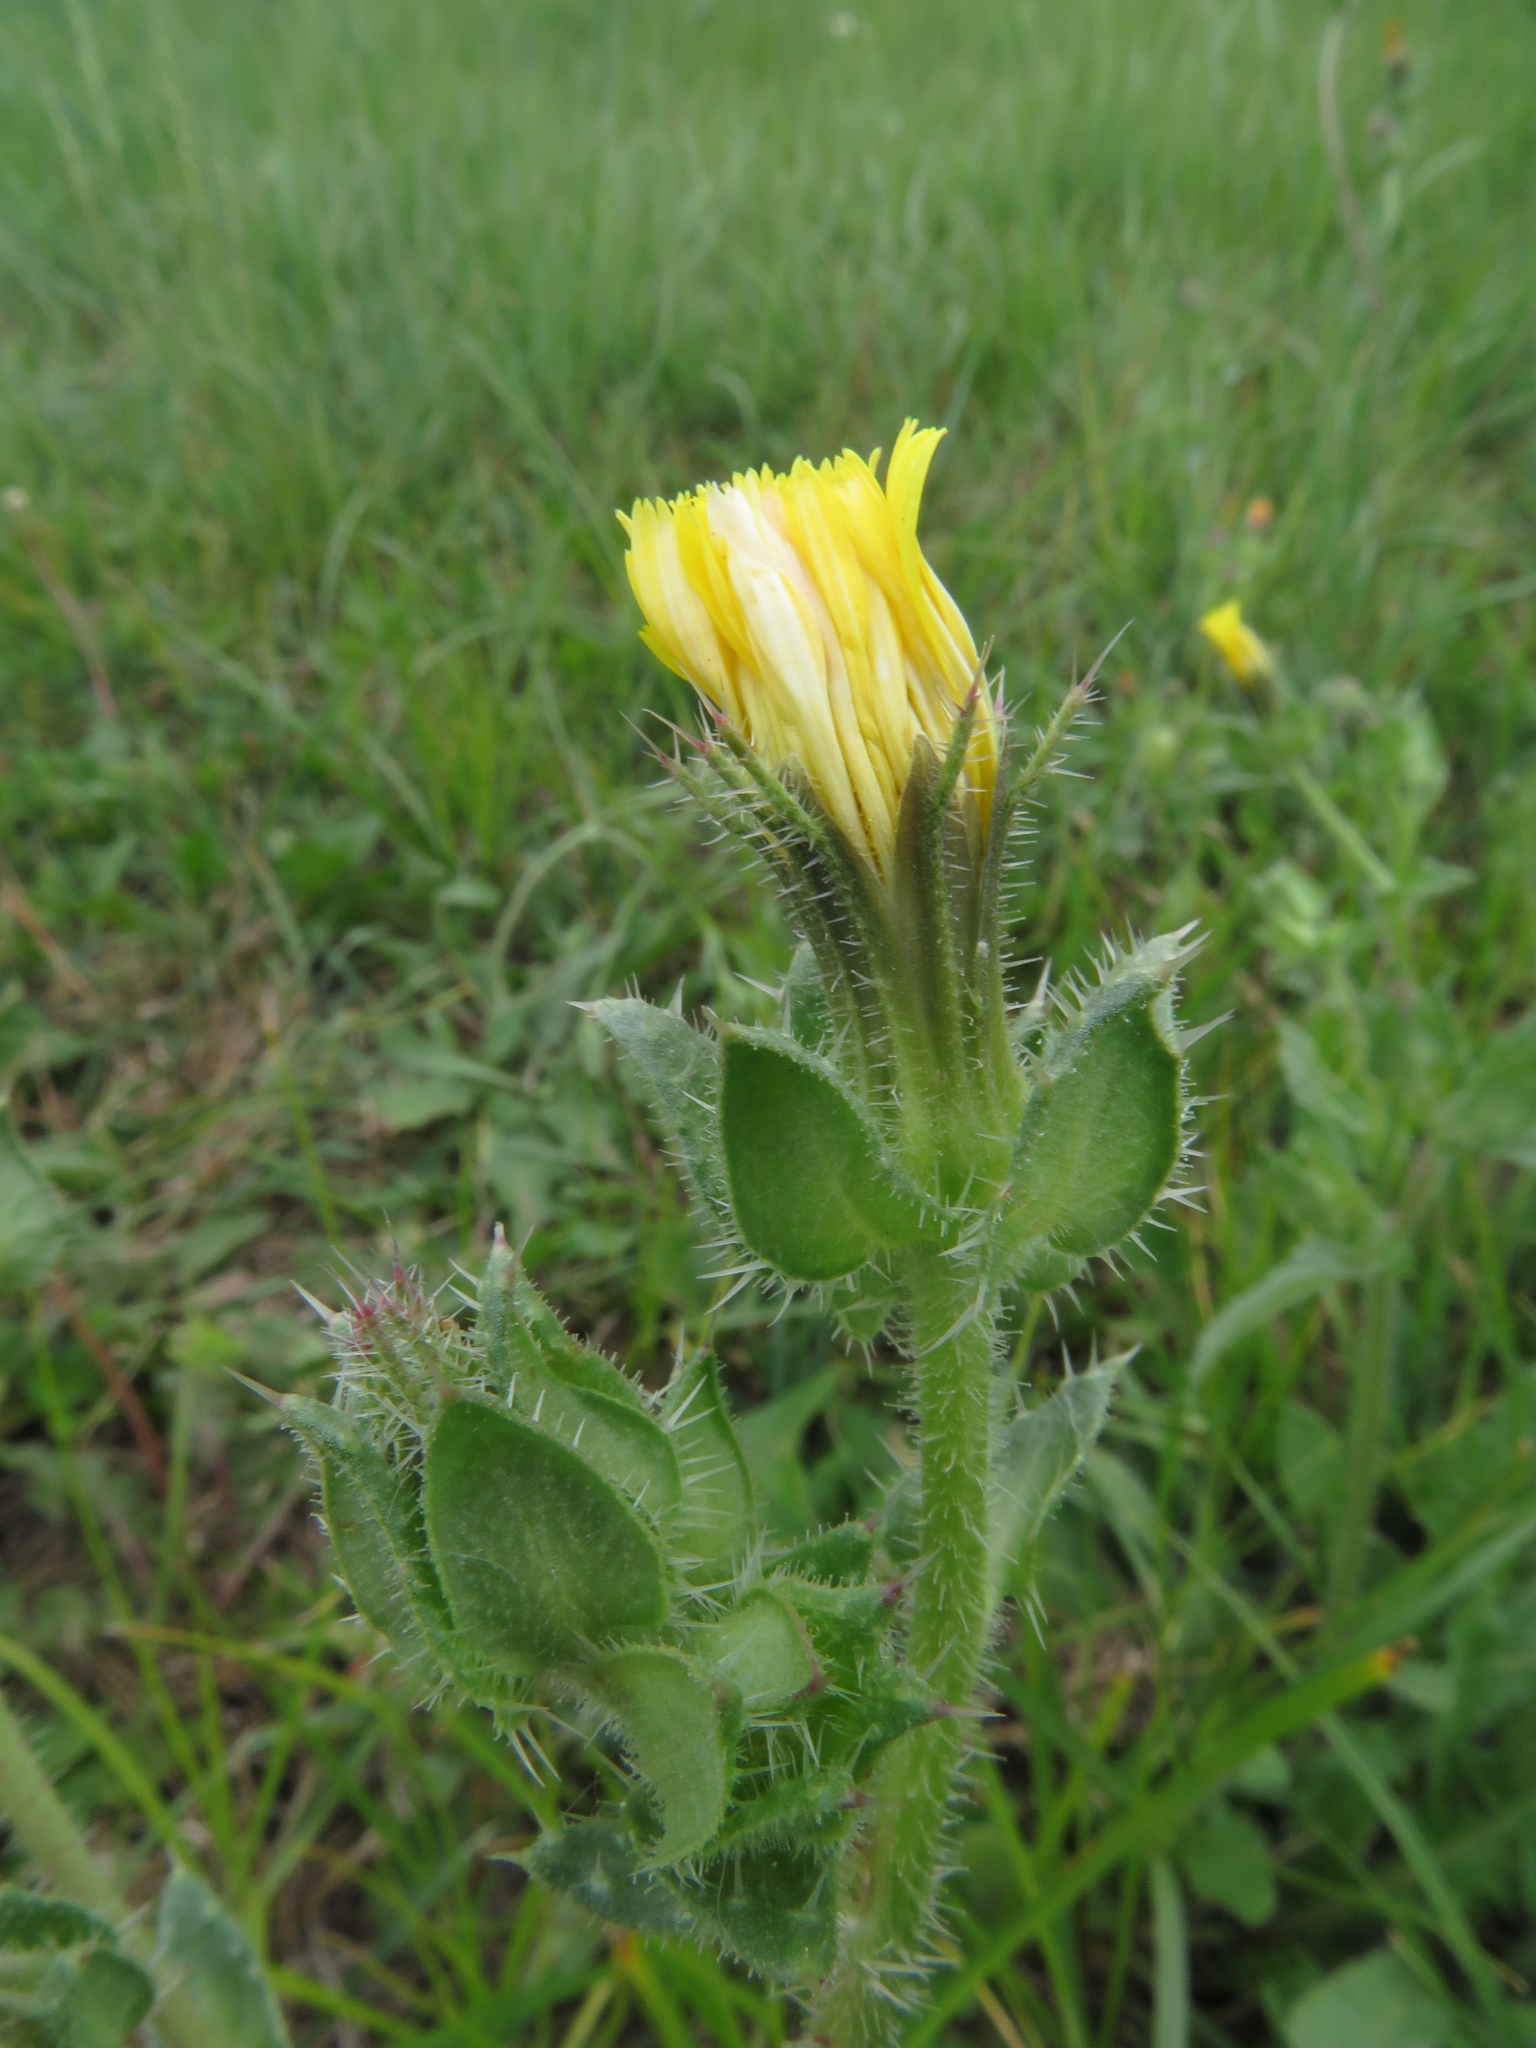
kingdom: Plantae
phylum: Tracheophyta
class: Magnoliopsida
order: Asterales
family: Asteraceae
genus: Helminthotheca
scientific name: Helminthotheca echioides
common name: Ox-tongue
